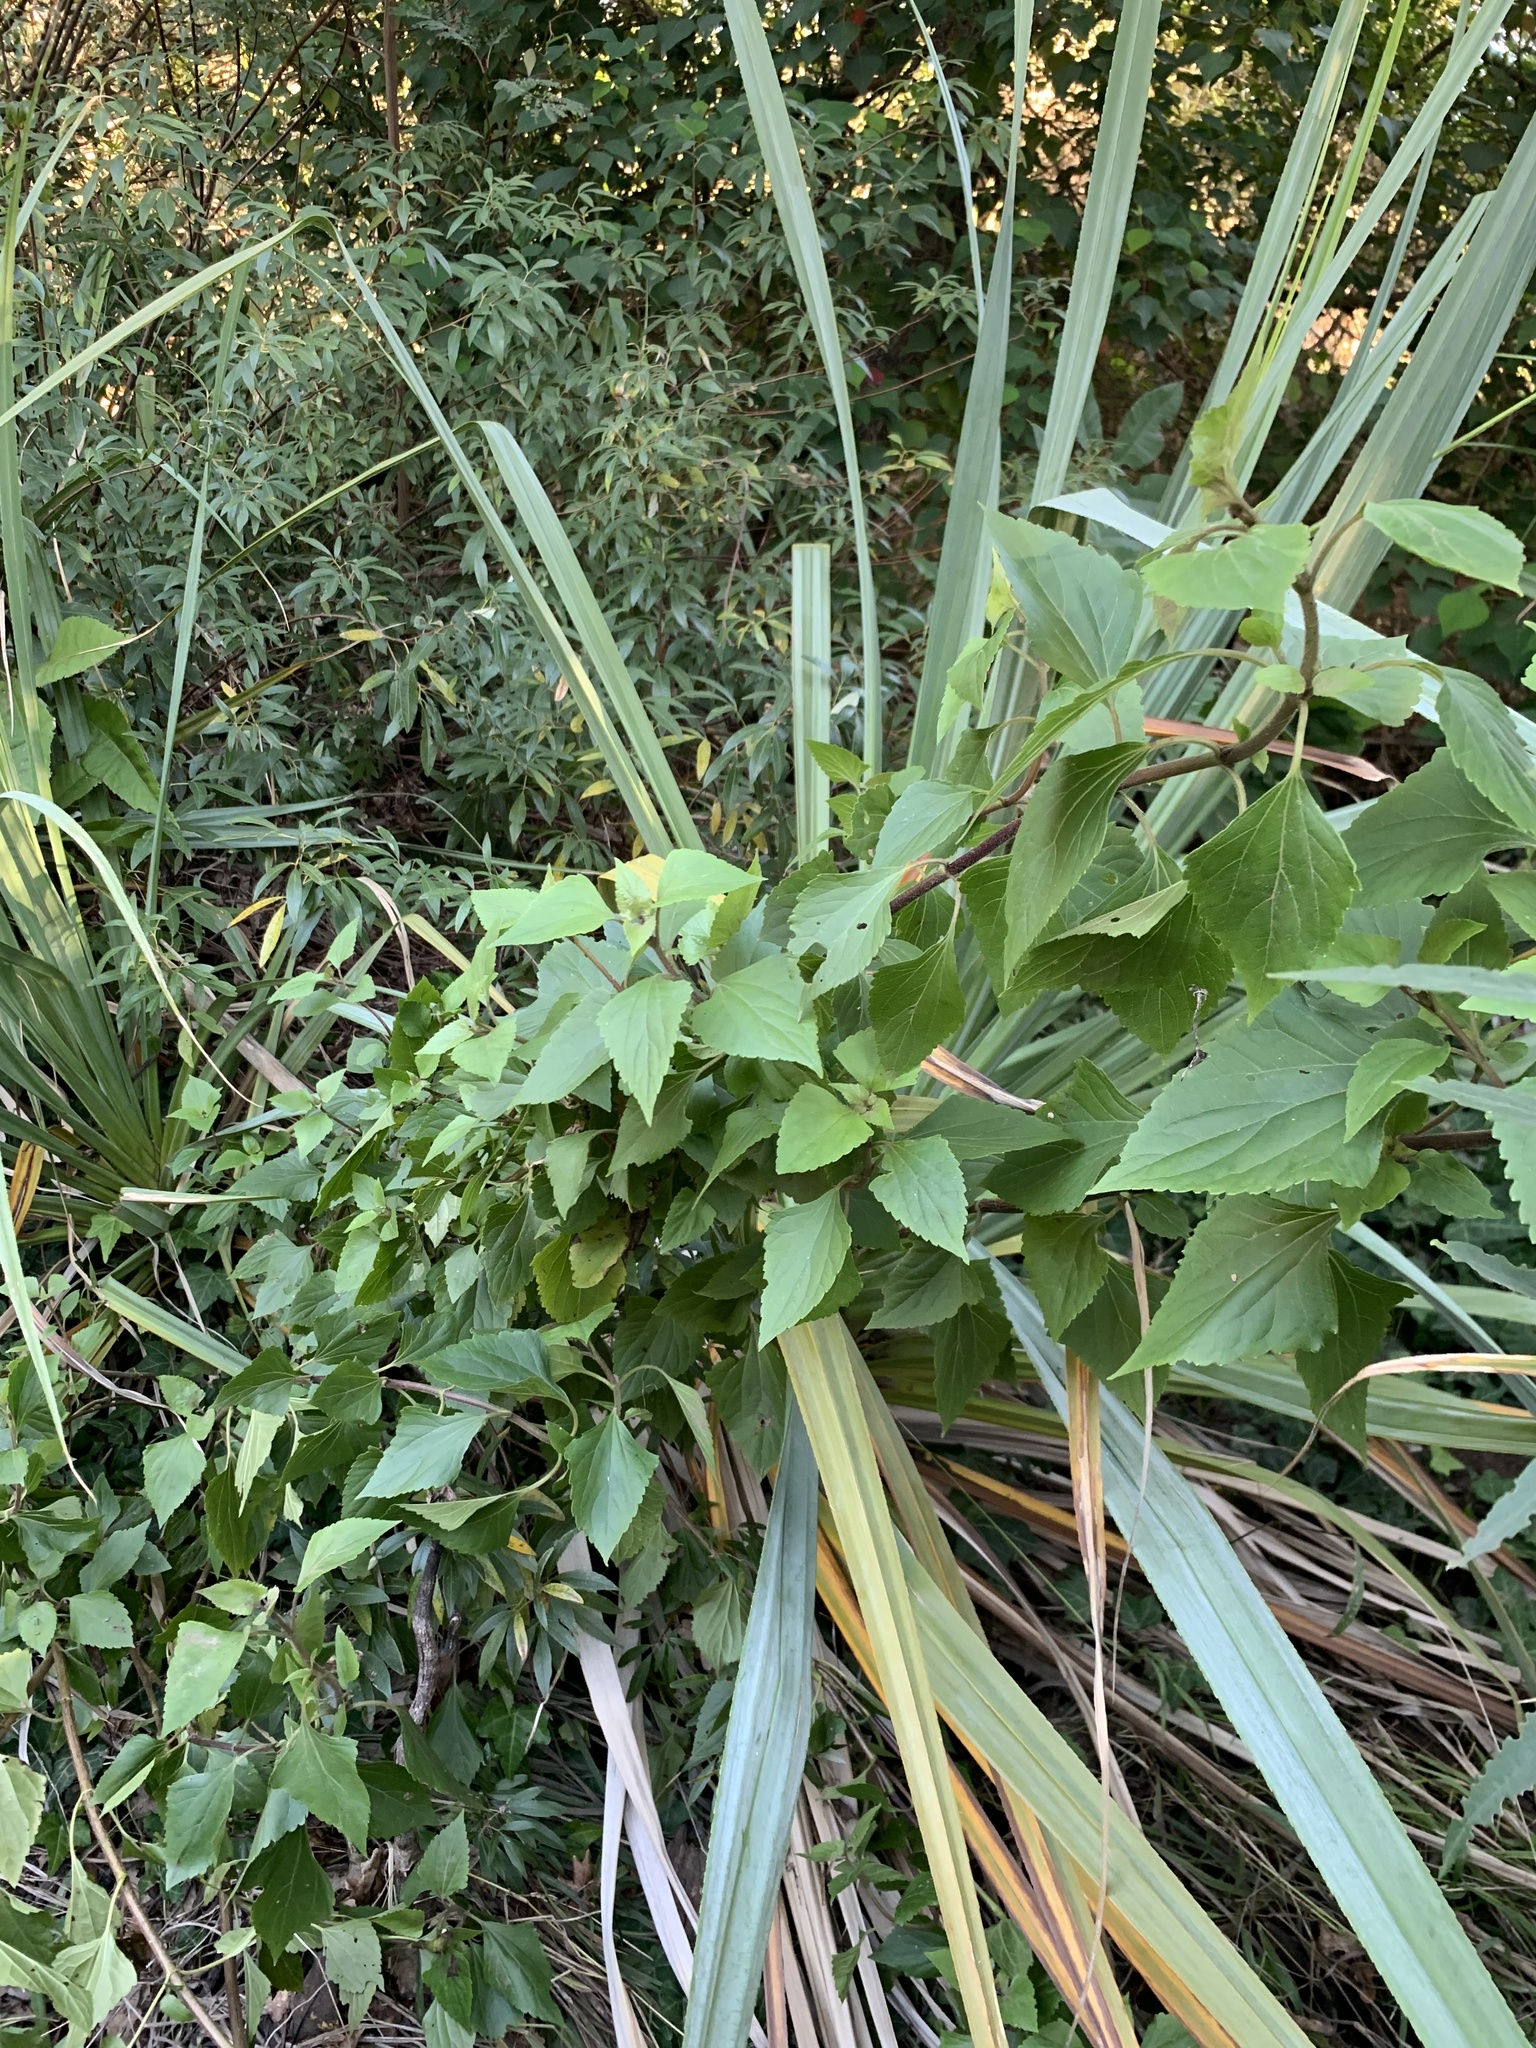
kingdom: Plantae
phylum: Tracheophyta
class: Magnoliopsida
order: Asterales
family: Asteraceae
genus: Ageratina
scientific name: Ageratina adenophora
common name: Sticky snakeroot
